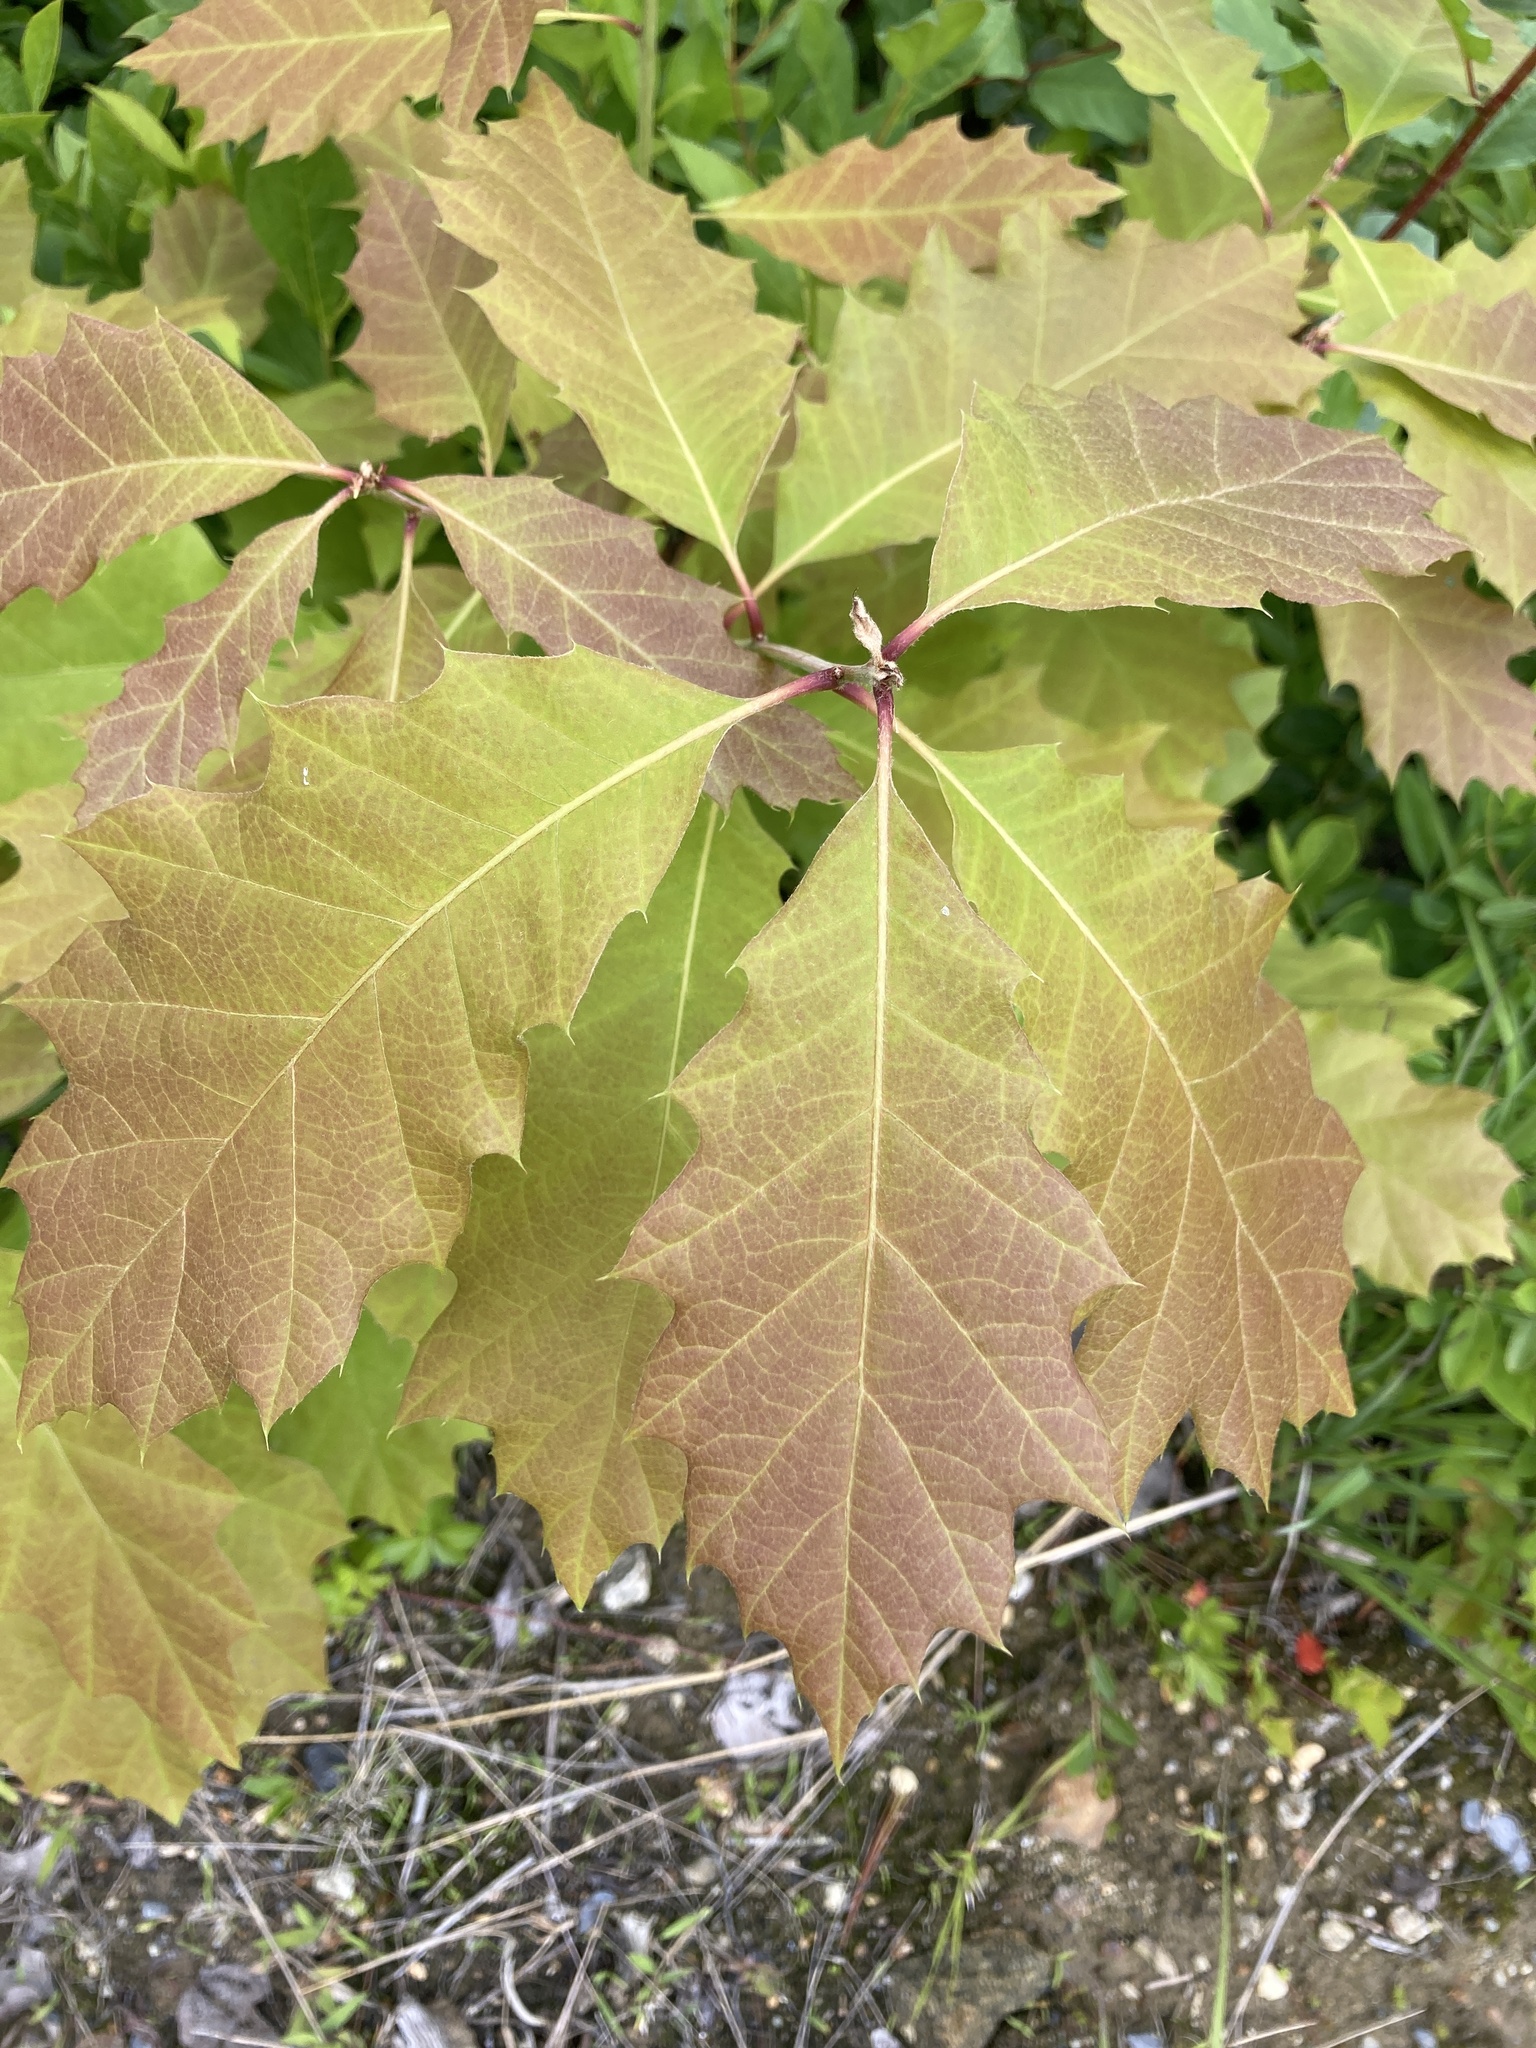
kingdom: Plantae
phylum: Tracheophyta
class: Magnoliopsida
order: Fagales
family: Fagaceae
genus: Quercus
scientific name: Quercus rubra
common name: Red oak
